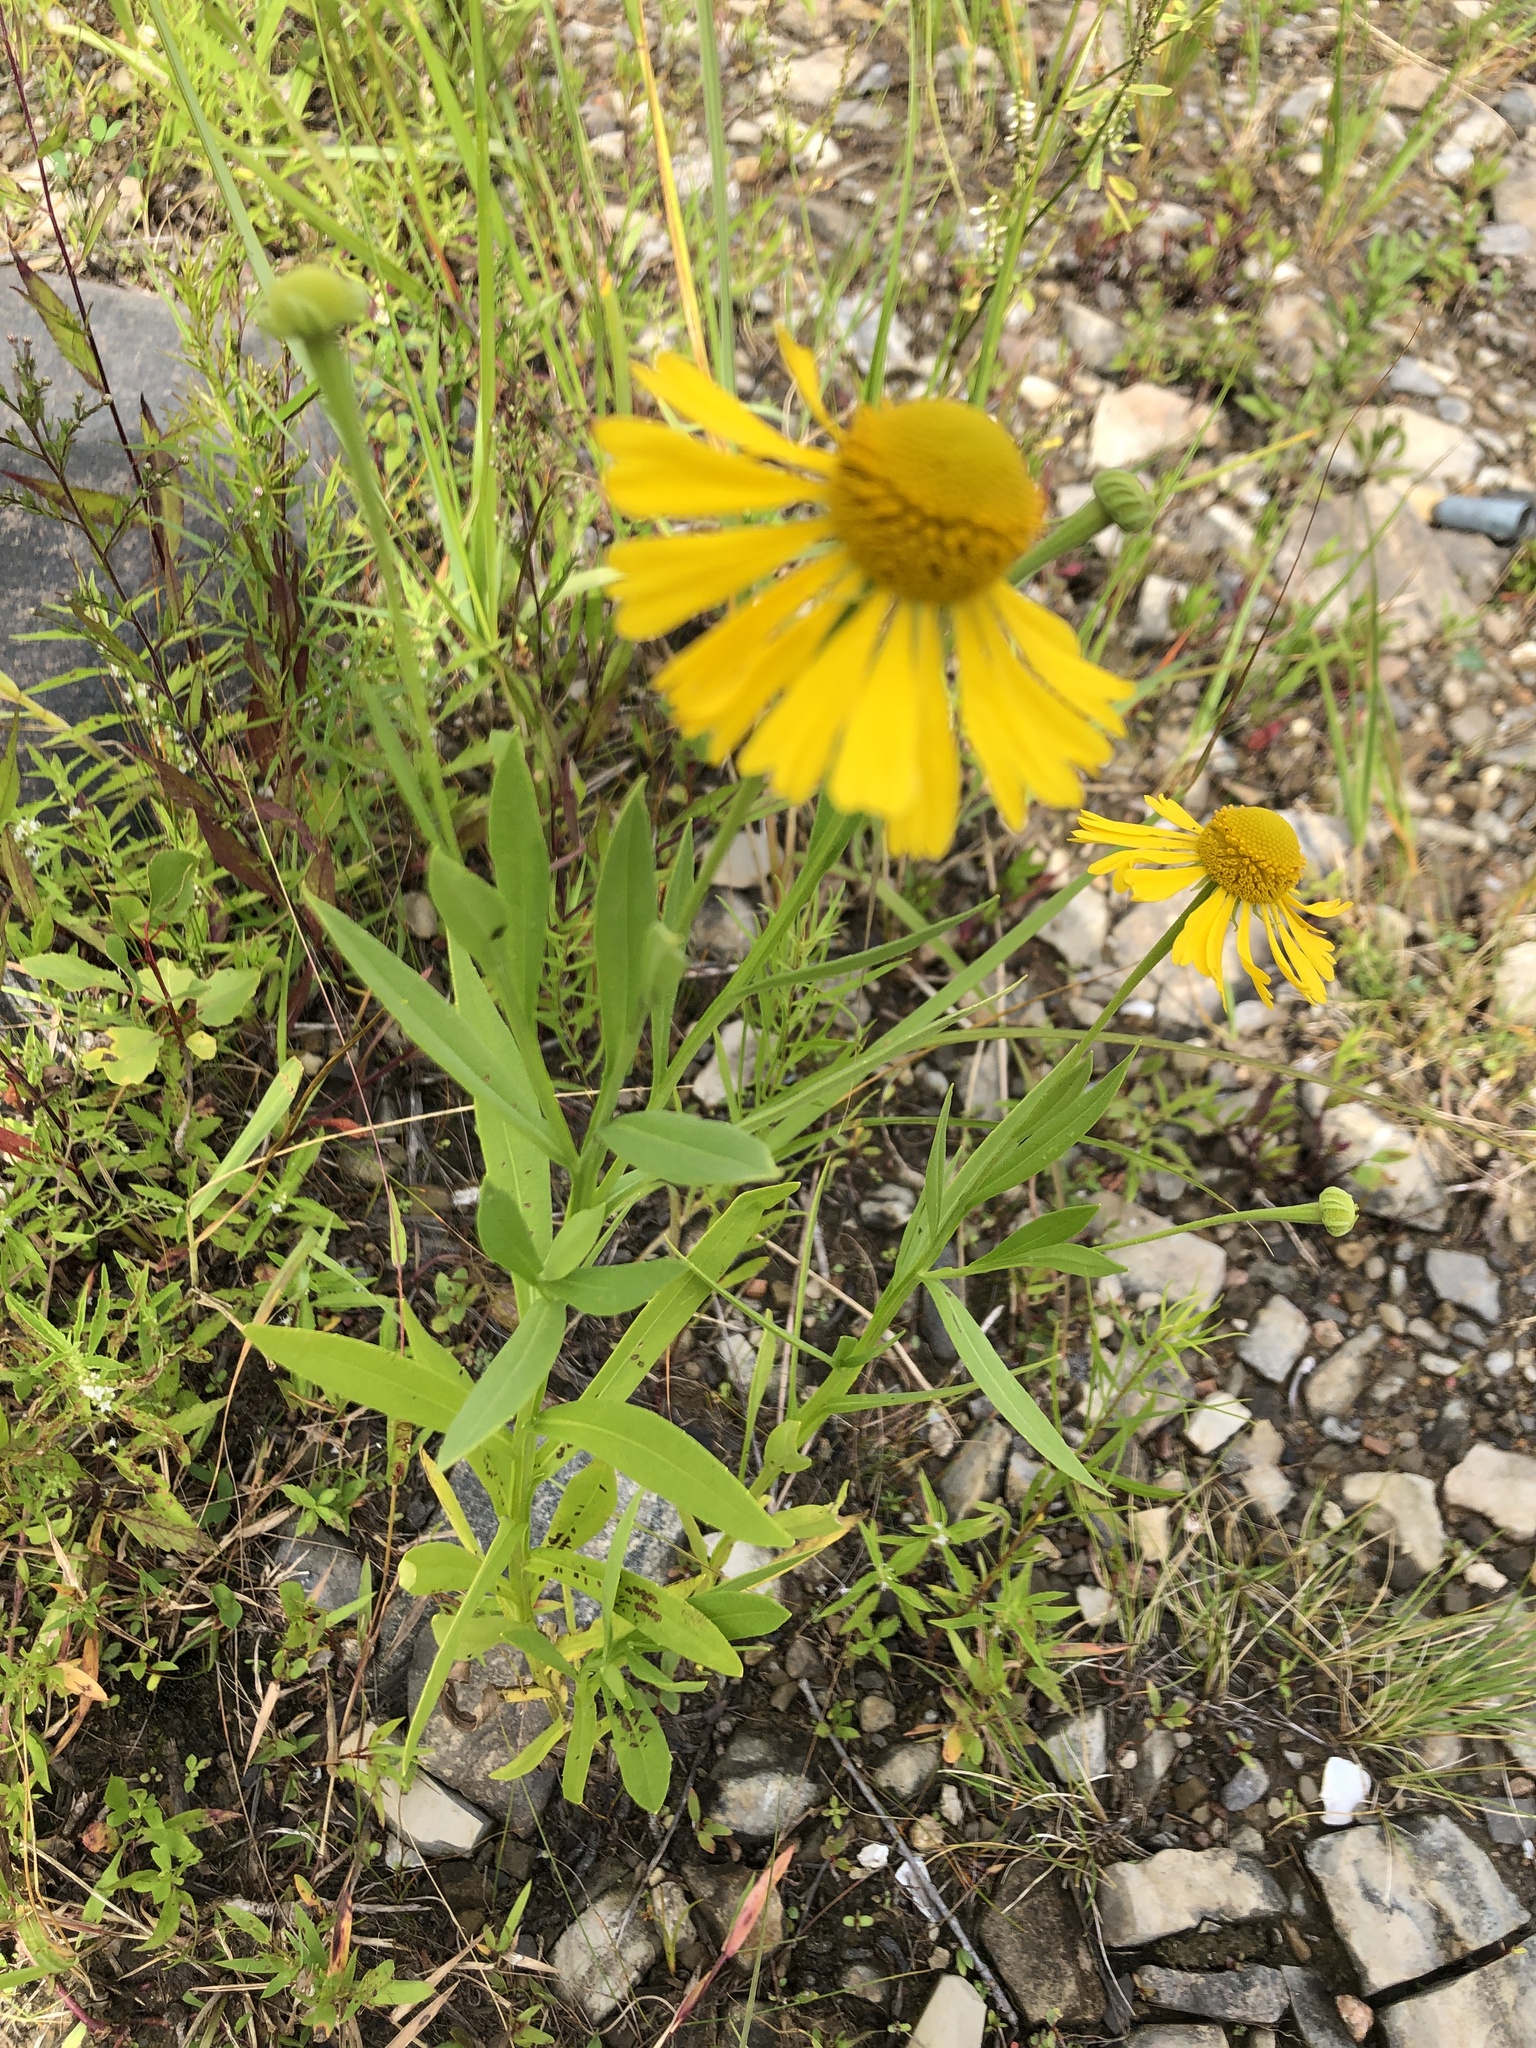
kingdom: Plantae
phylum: Tracheophyta
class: Magnoliopsida
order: Asterales
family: Asteraceae
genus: Helenium
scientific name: Helenium autumnale
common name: Sneezeweed
